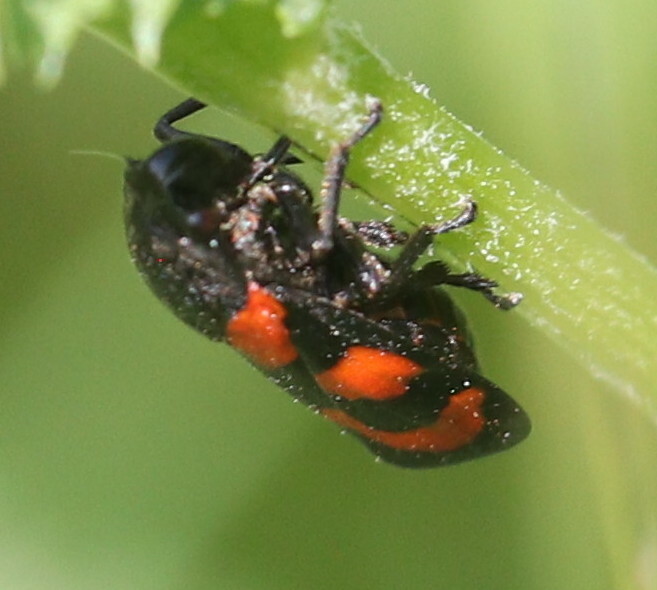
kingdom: Animalia
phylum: Arthropoda
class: Insecta
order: Hemiptera
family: Cercopidae
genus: Cercopis
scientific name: Cercopis vulnerata
